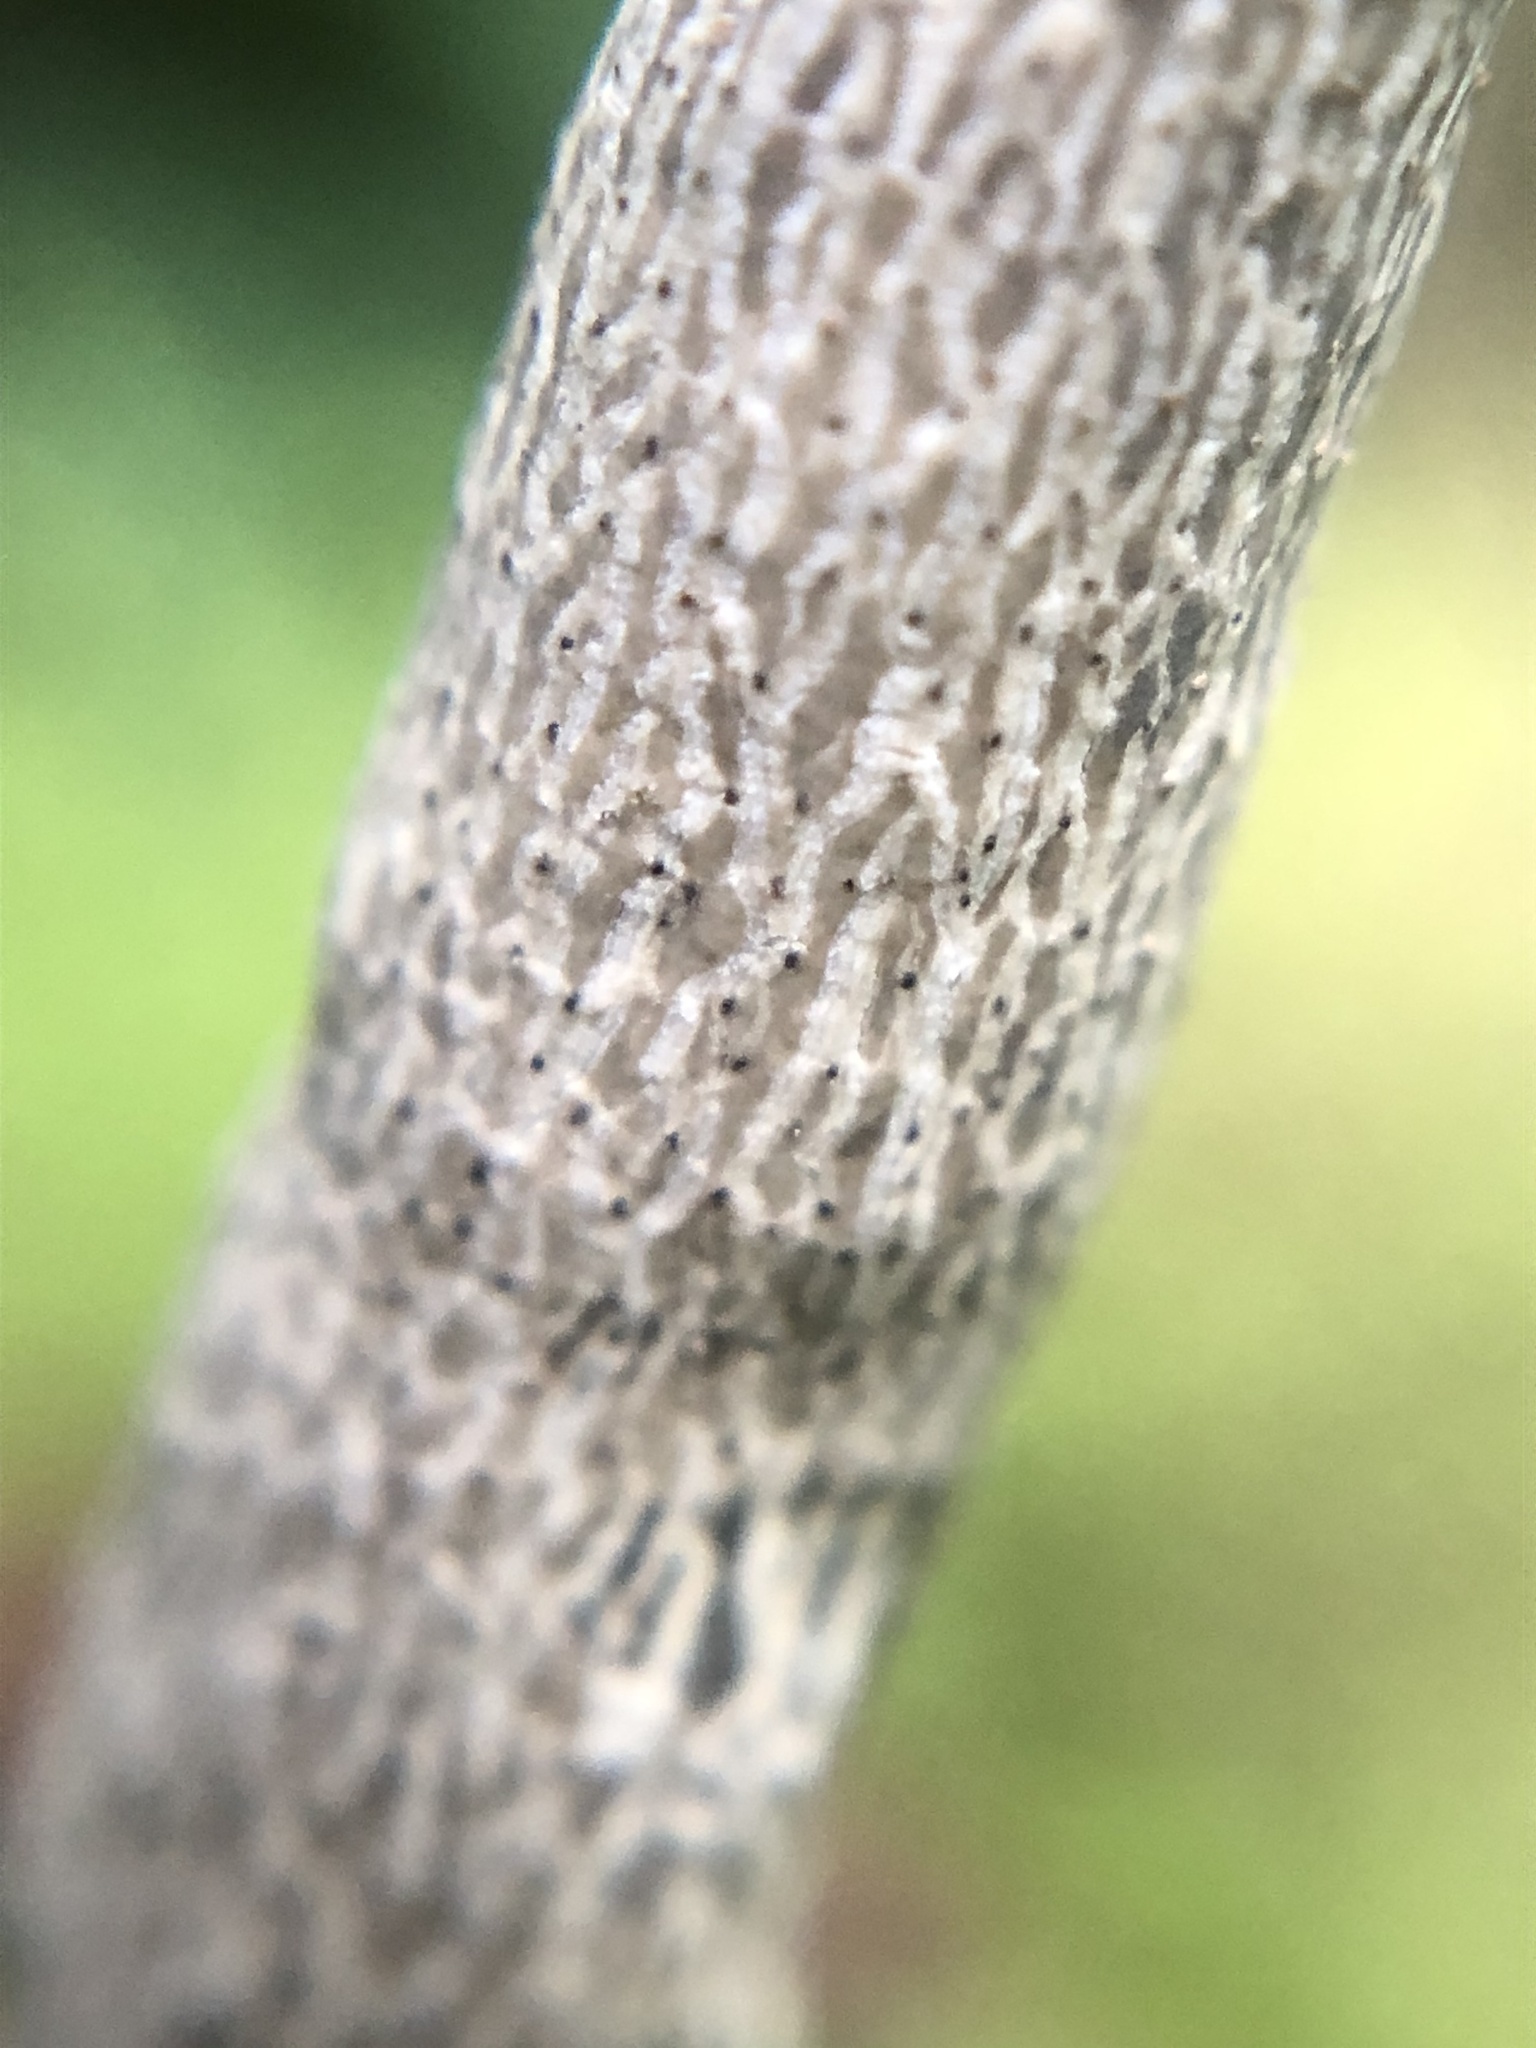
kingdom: Fungi
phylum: Ascomycota
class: Sordariomycetes
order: Xylariales
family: Xylariaceae
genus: Xylaria
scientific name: Xylaria grammica
